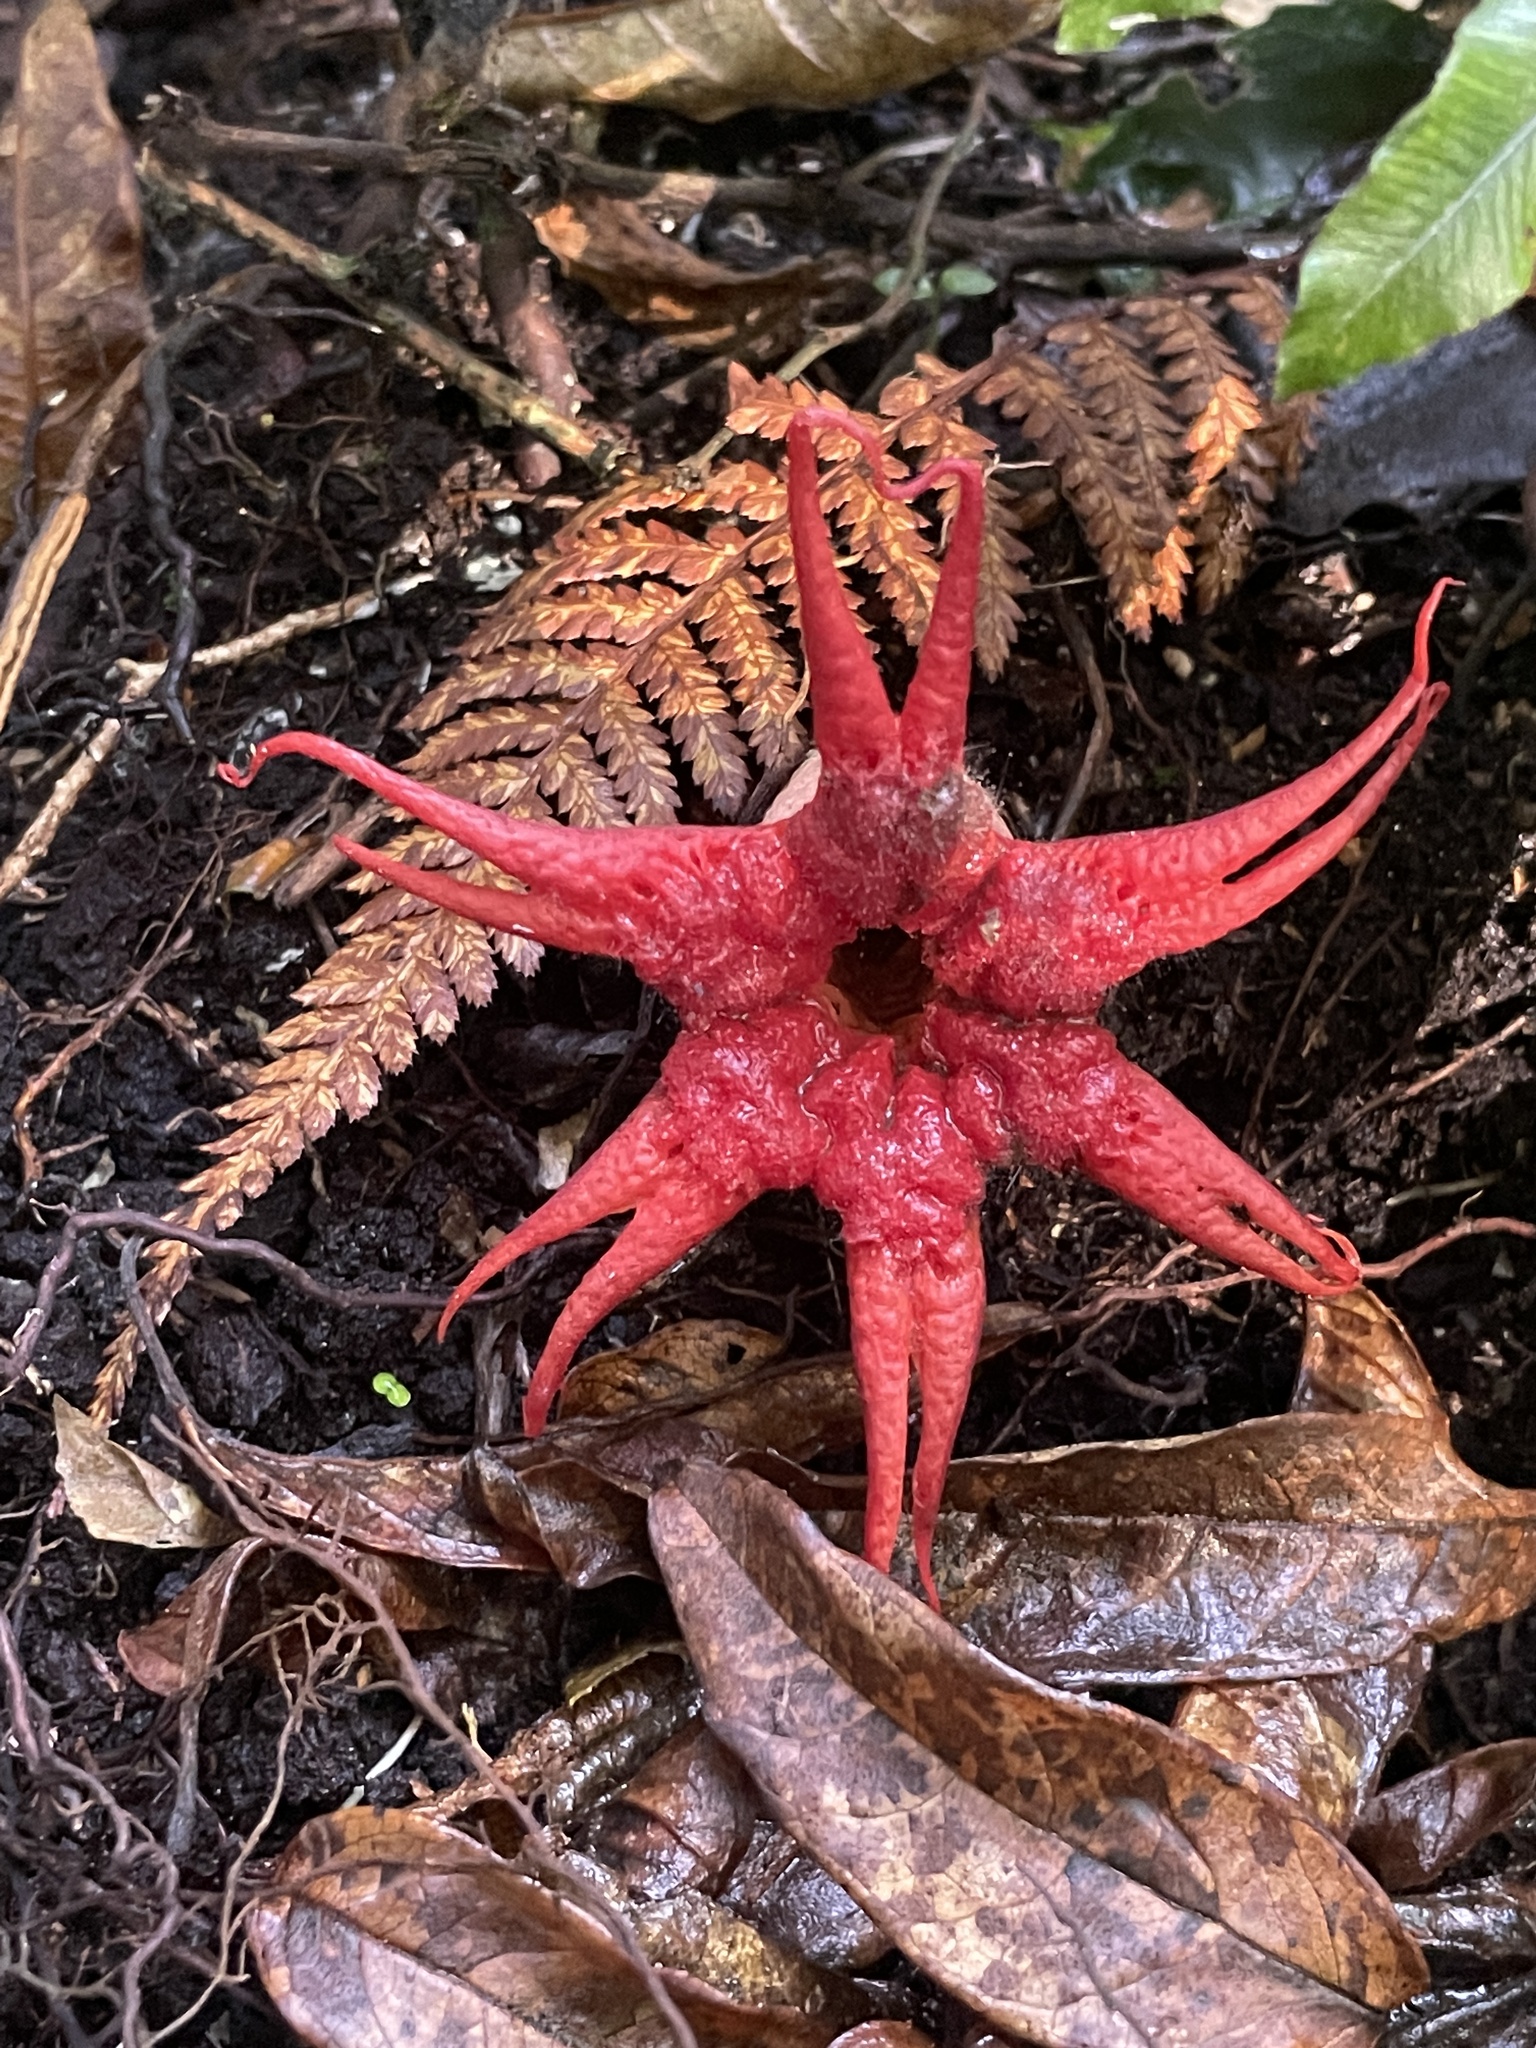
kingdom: Fungi
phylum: Basidiomycota
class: Agaricomycetes
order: Phallales
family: Phallaceae
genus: Aseroe
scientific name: Aseroe rubra
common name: Starfish fungus
